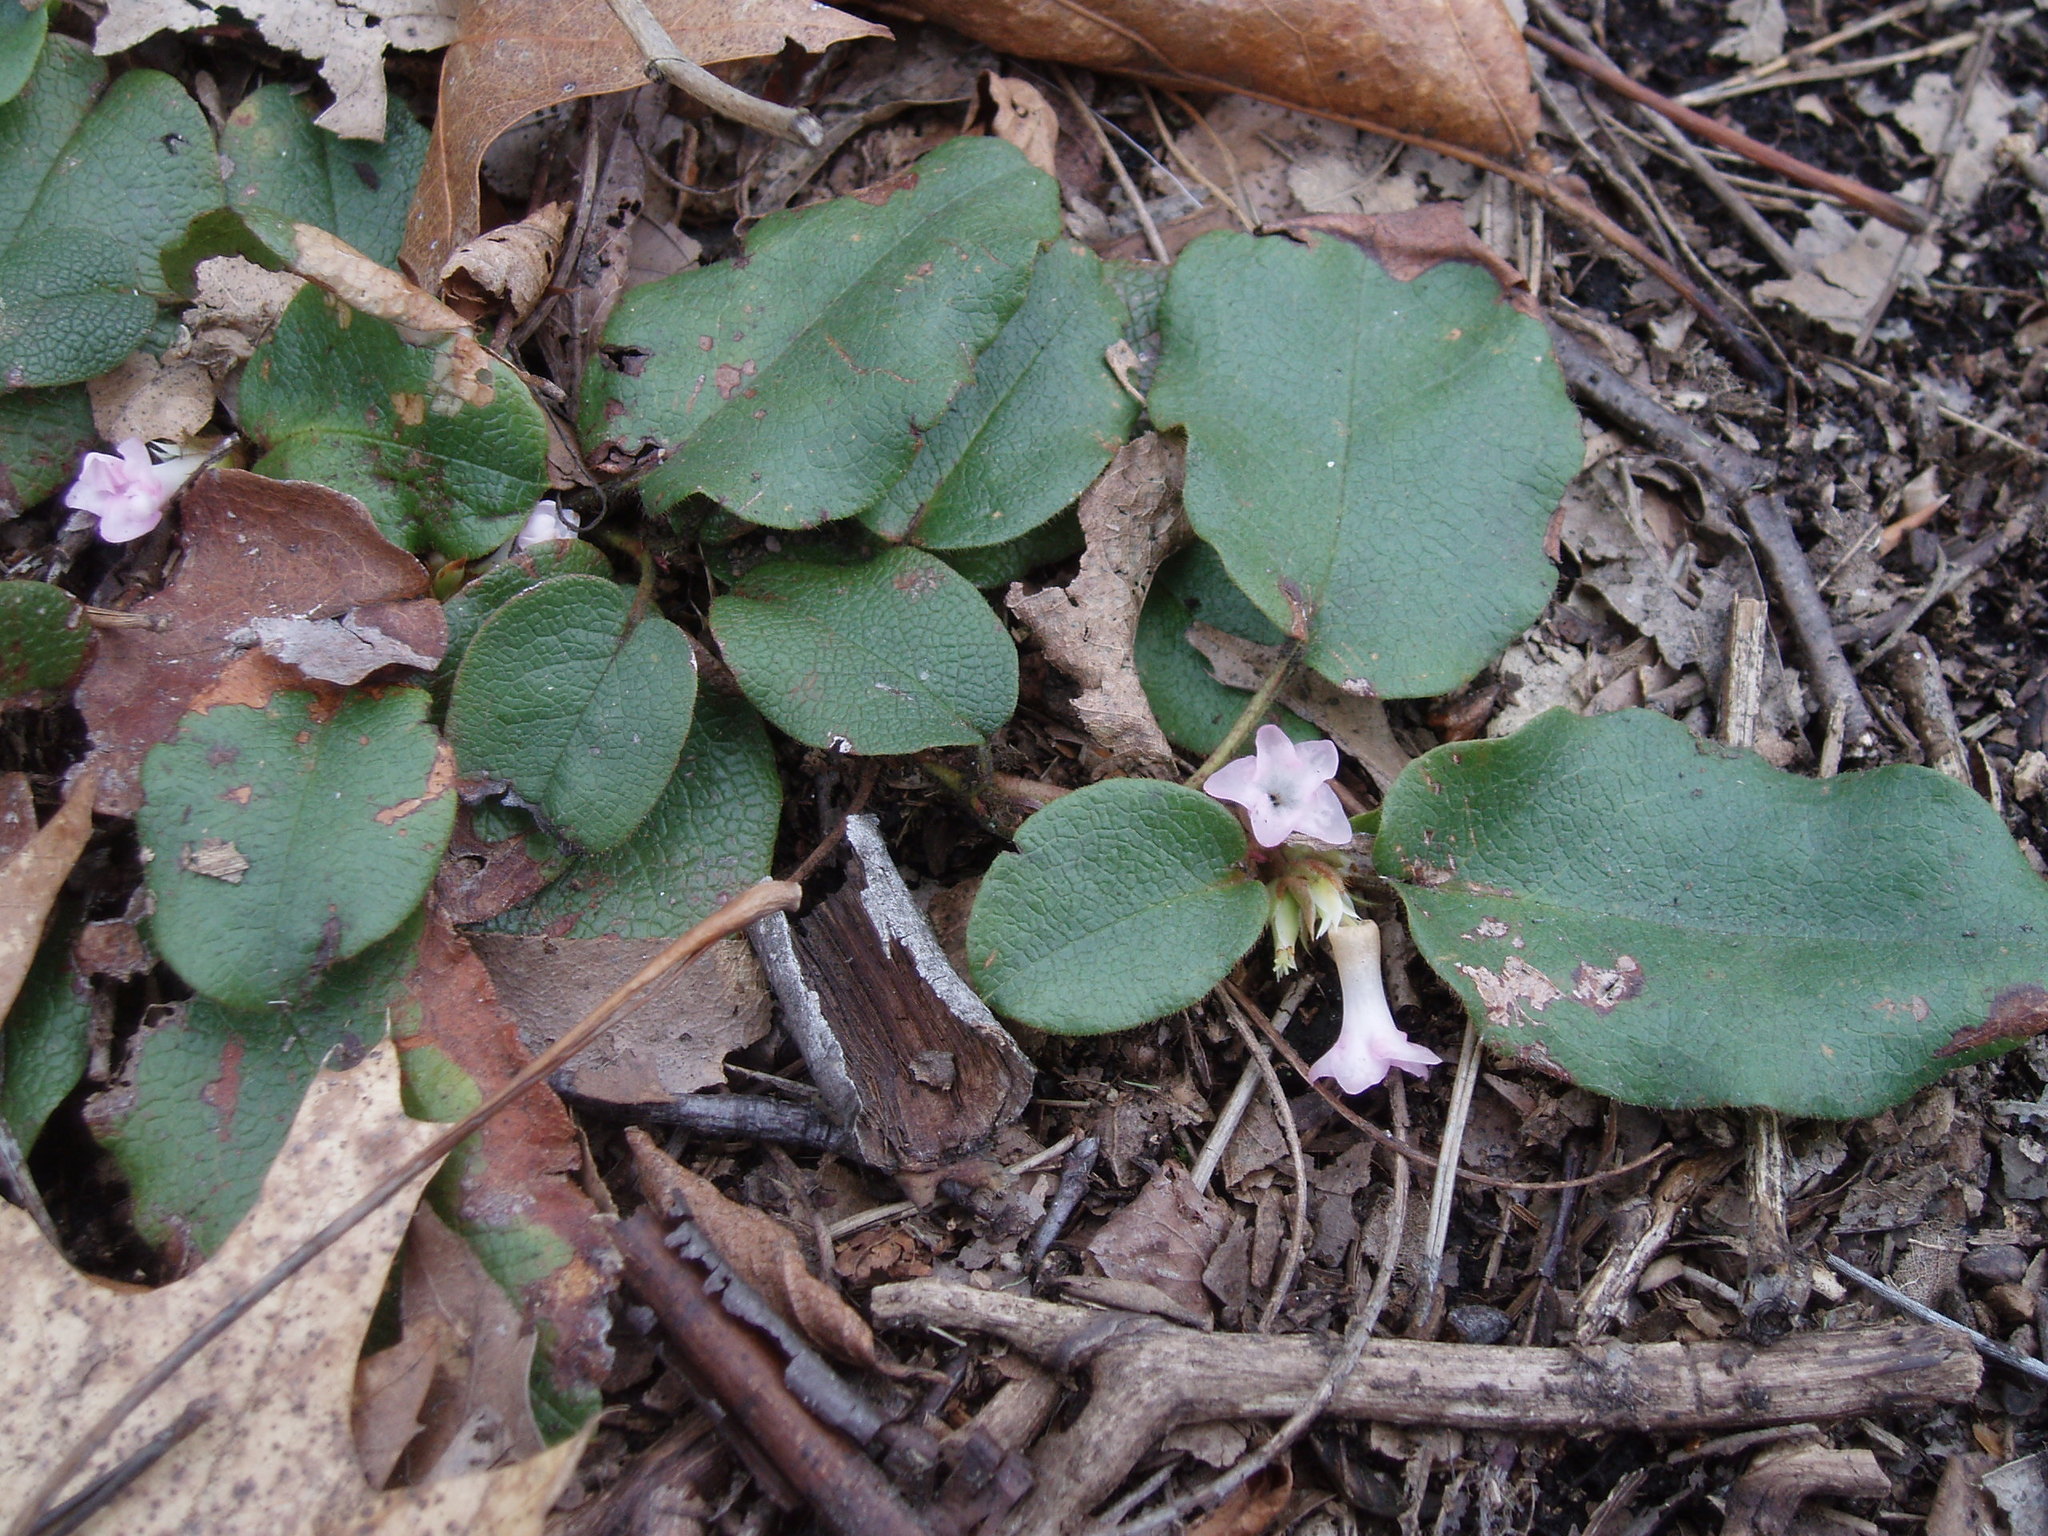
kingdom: Plantae
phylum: Tracheophyta
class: Magnoliopsida
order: Ericales
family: Ericaceae
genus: Epigaea
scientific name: Epigaea repens
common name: Gravelroot
